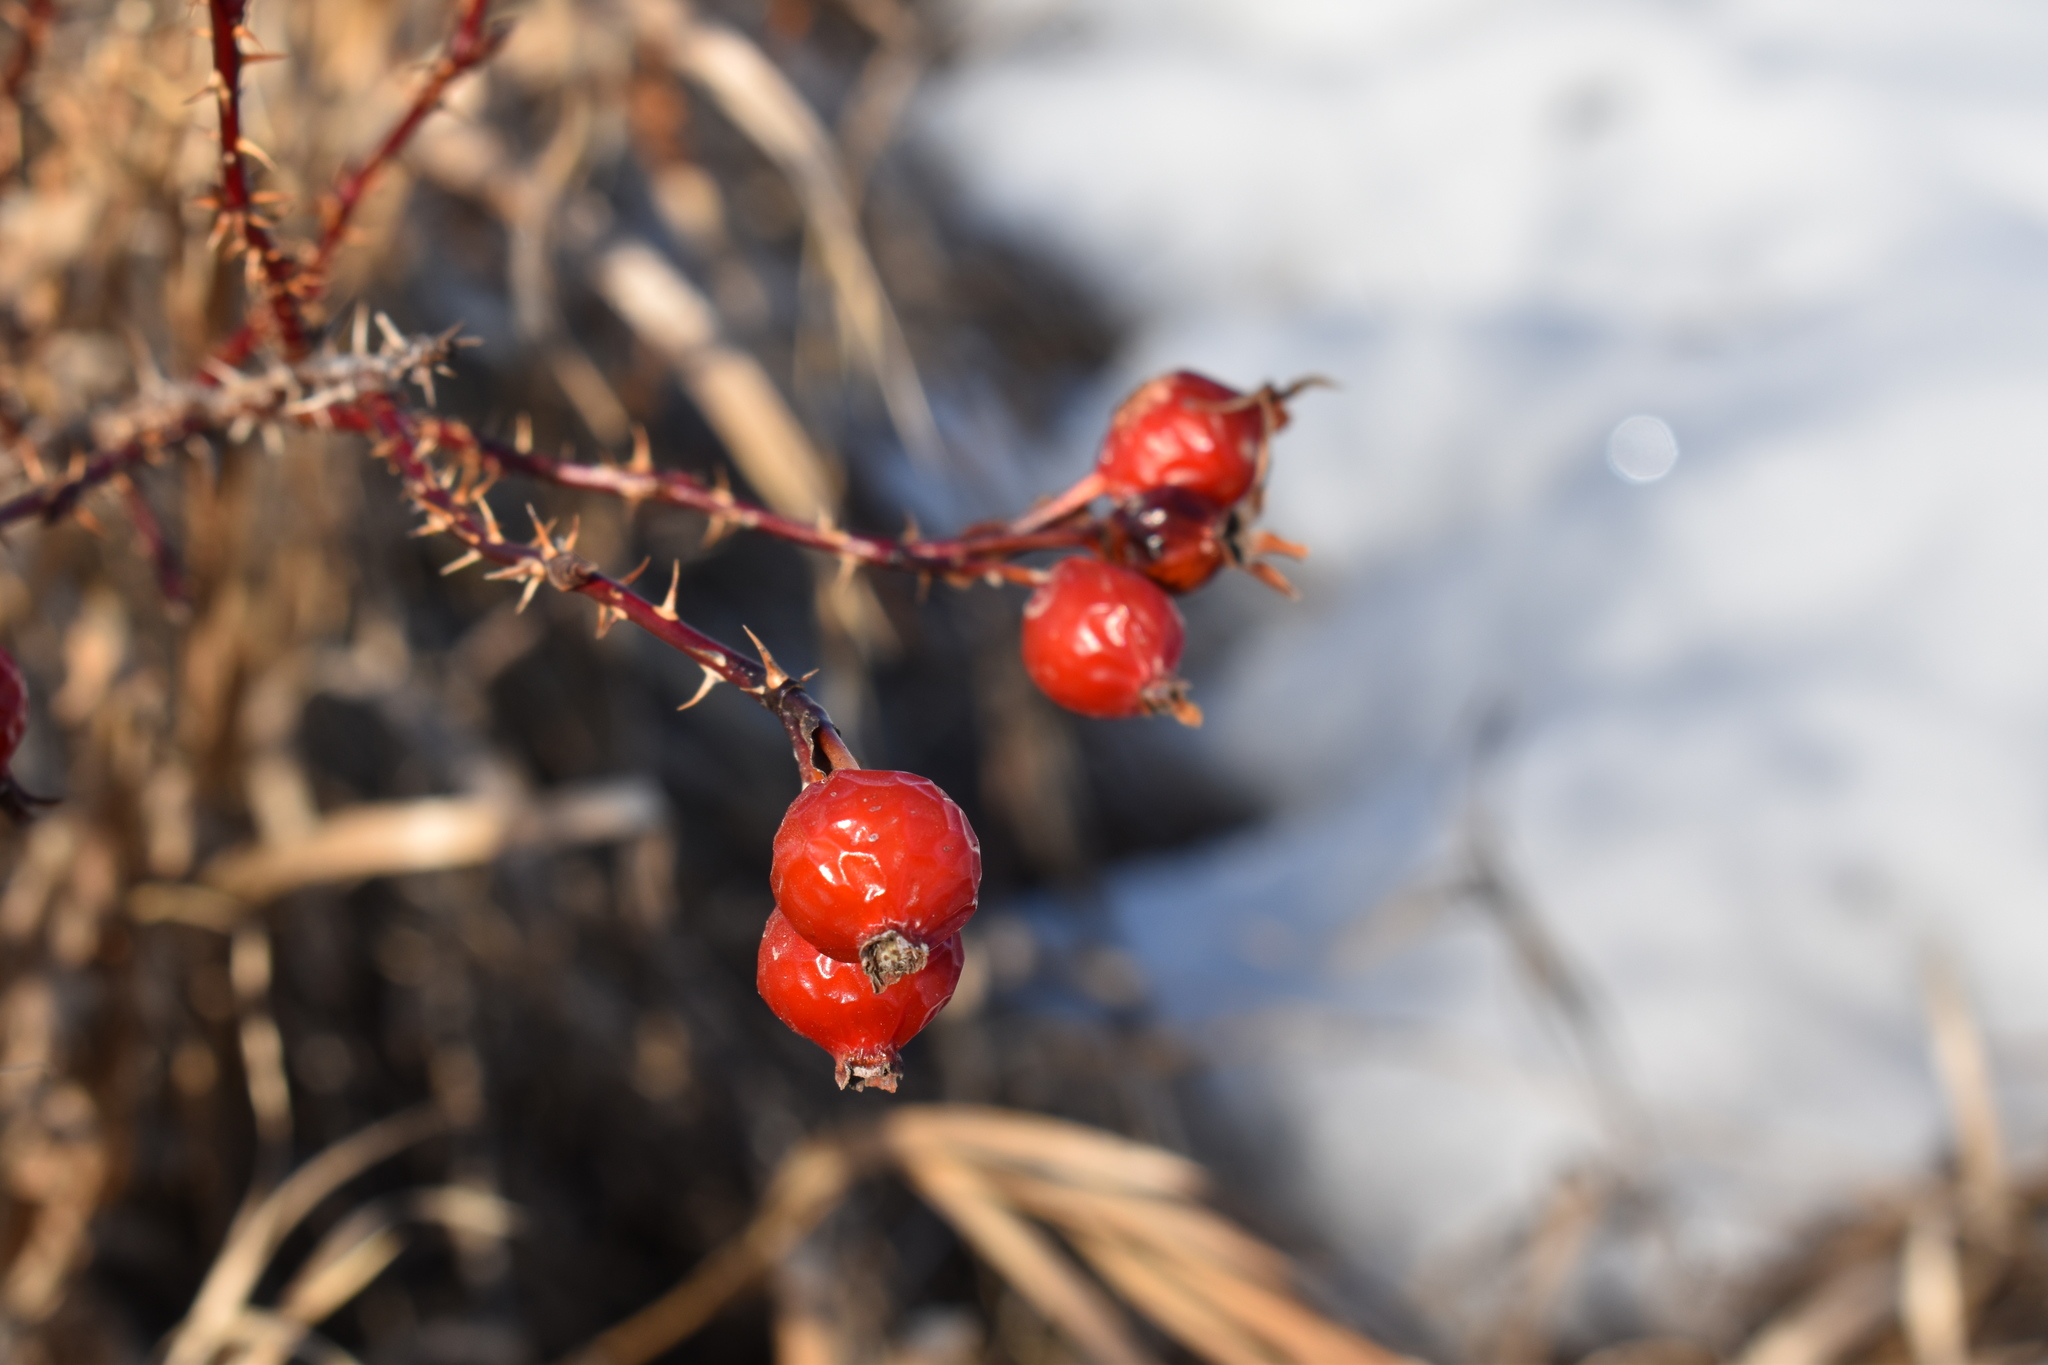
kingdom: Plantae
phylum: Tracheophyta
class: Magnoliopsida
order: Rosales
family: Rosaceae
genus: Rosa
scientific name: Rosa woodsii
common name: Woods's rose
